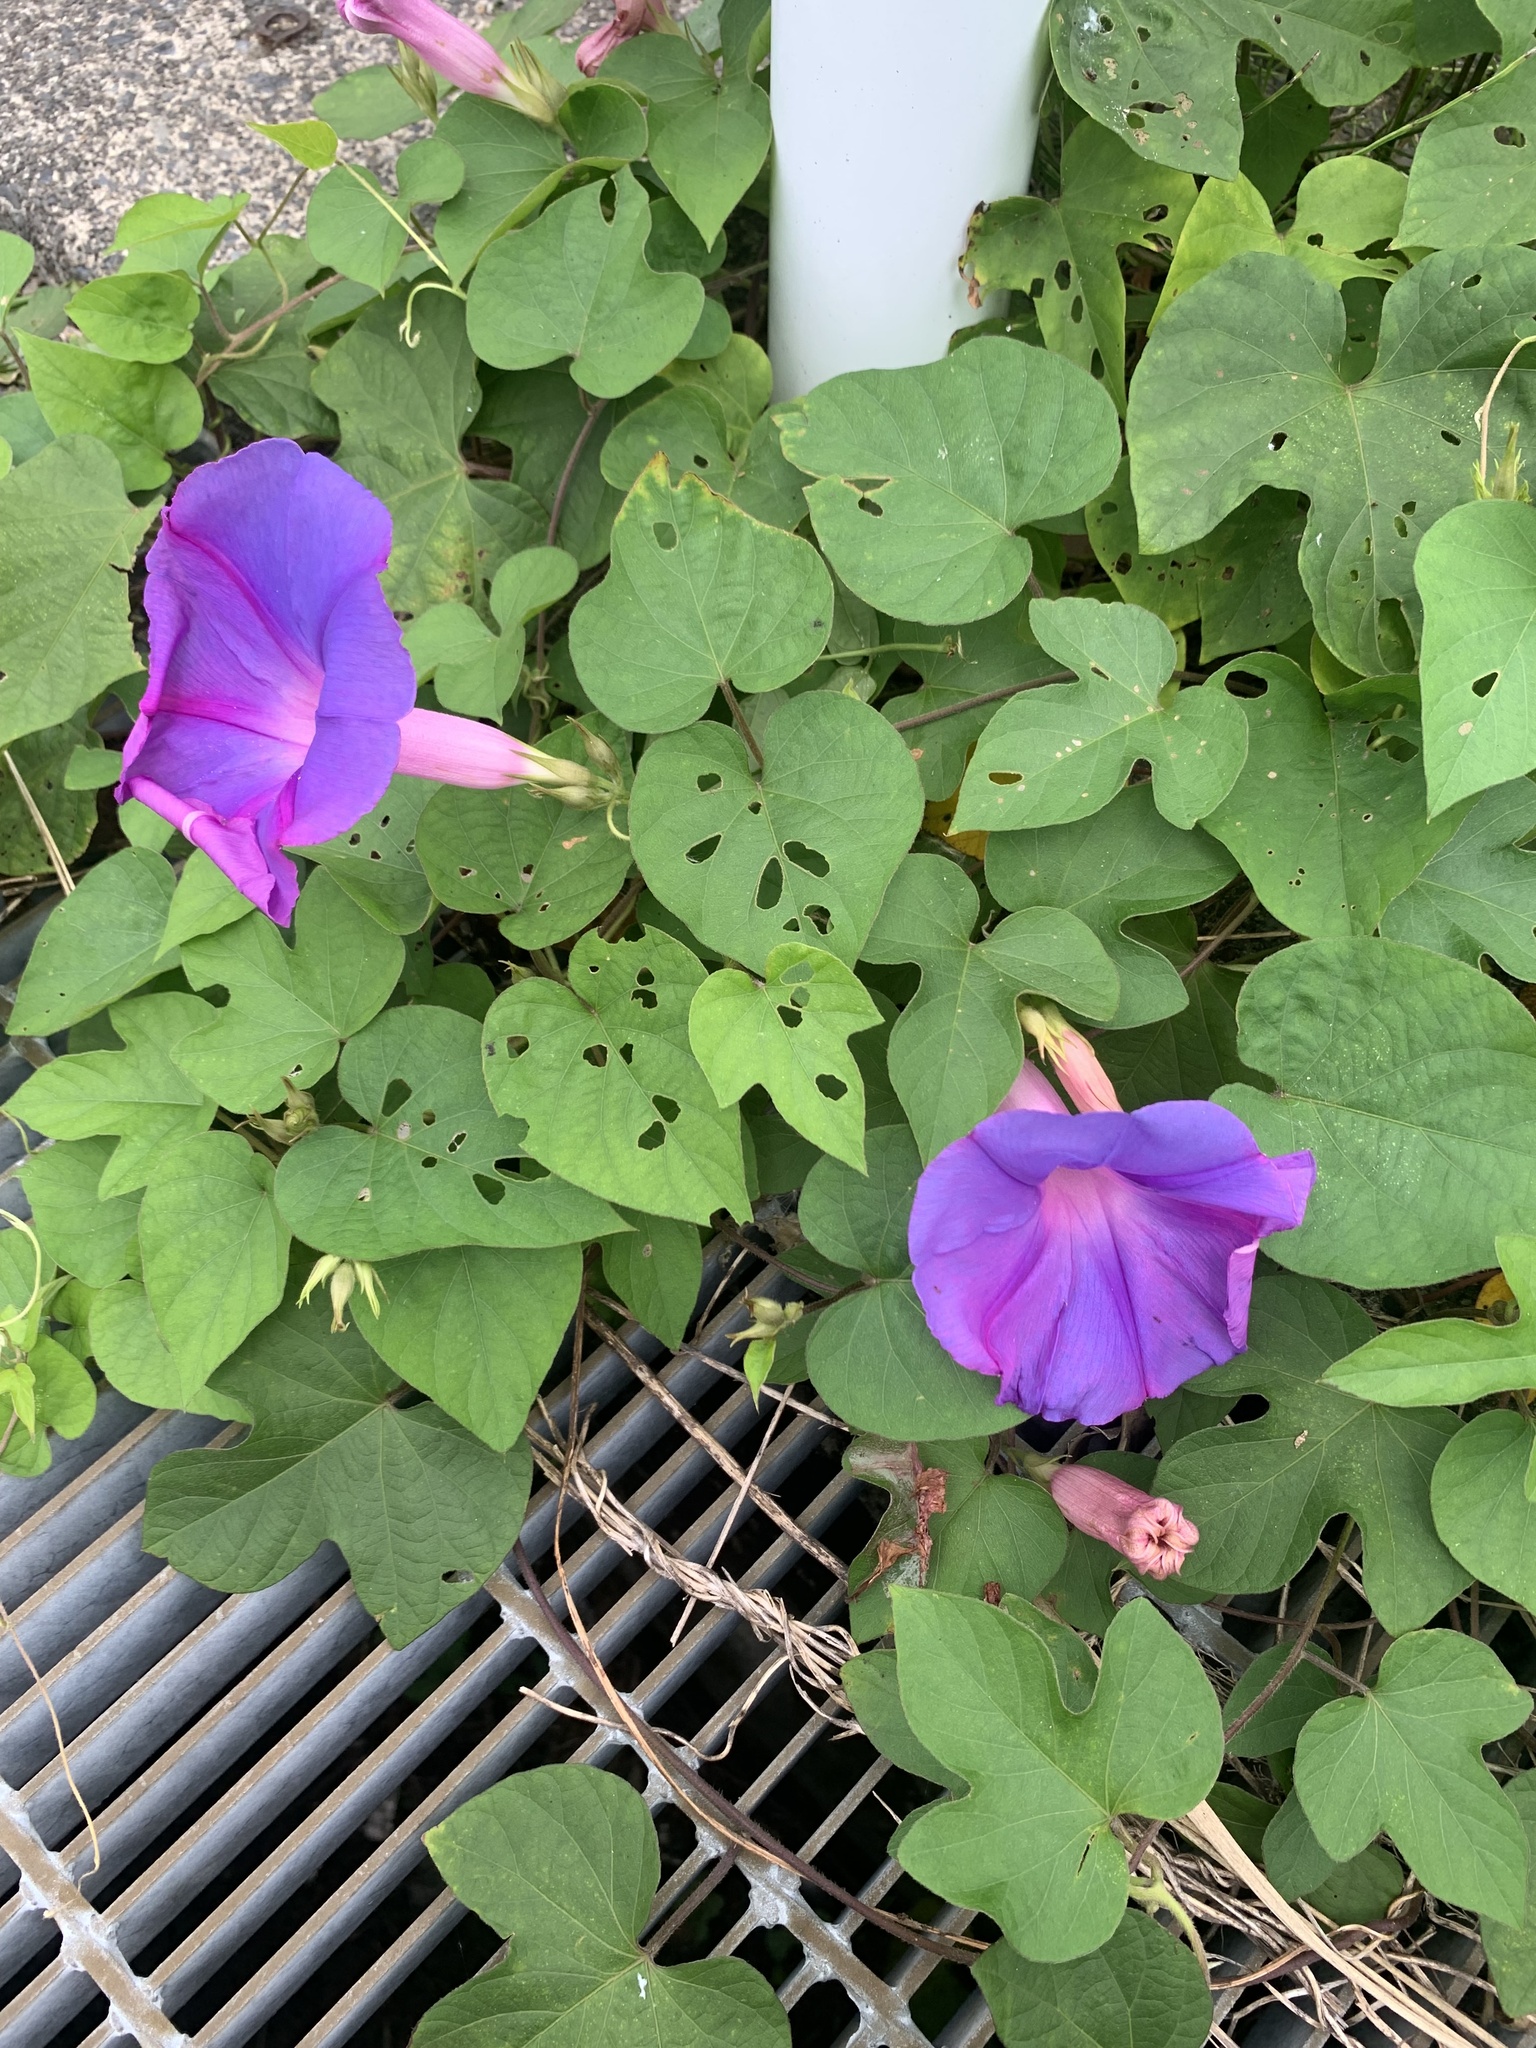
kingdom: Plantae
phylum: Tracheophyta
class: Magnoliopsida
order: Solanales
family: Convolvulaceae
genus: Ipomoea
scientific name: Ipomoea indica
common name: Blue dawnflower
